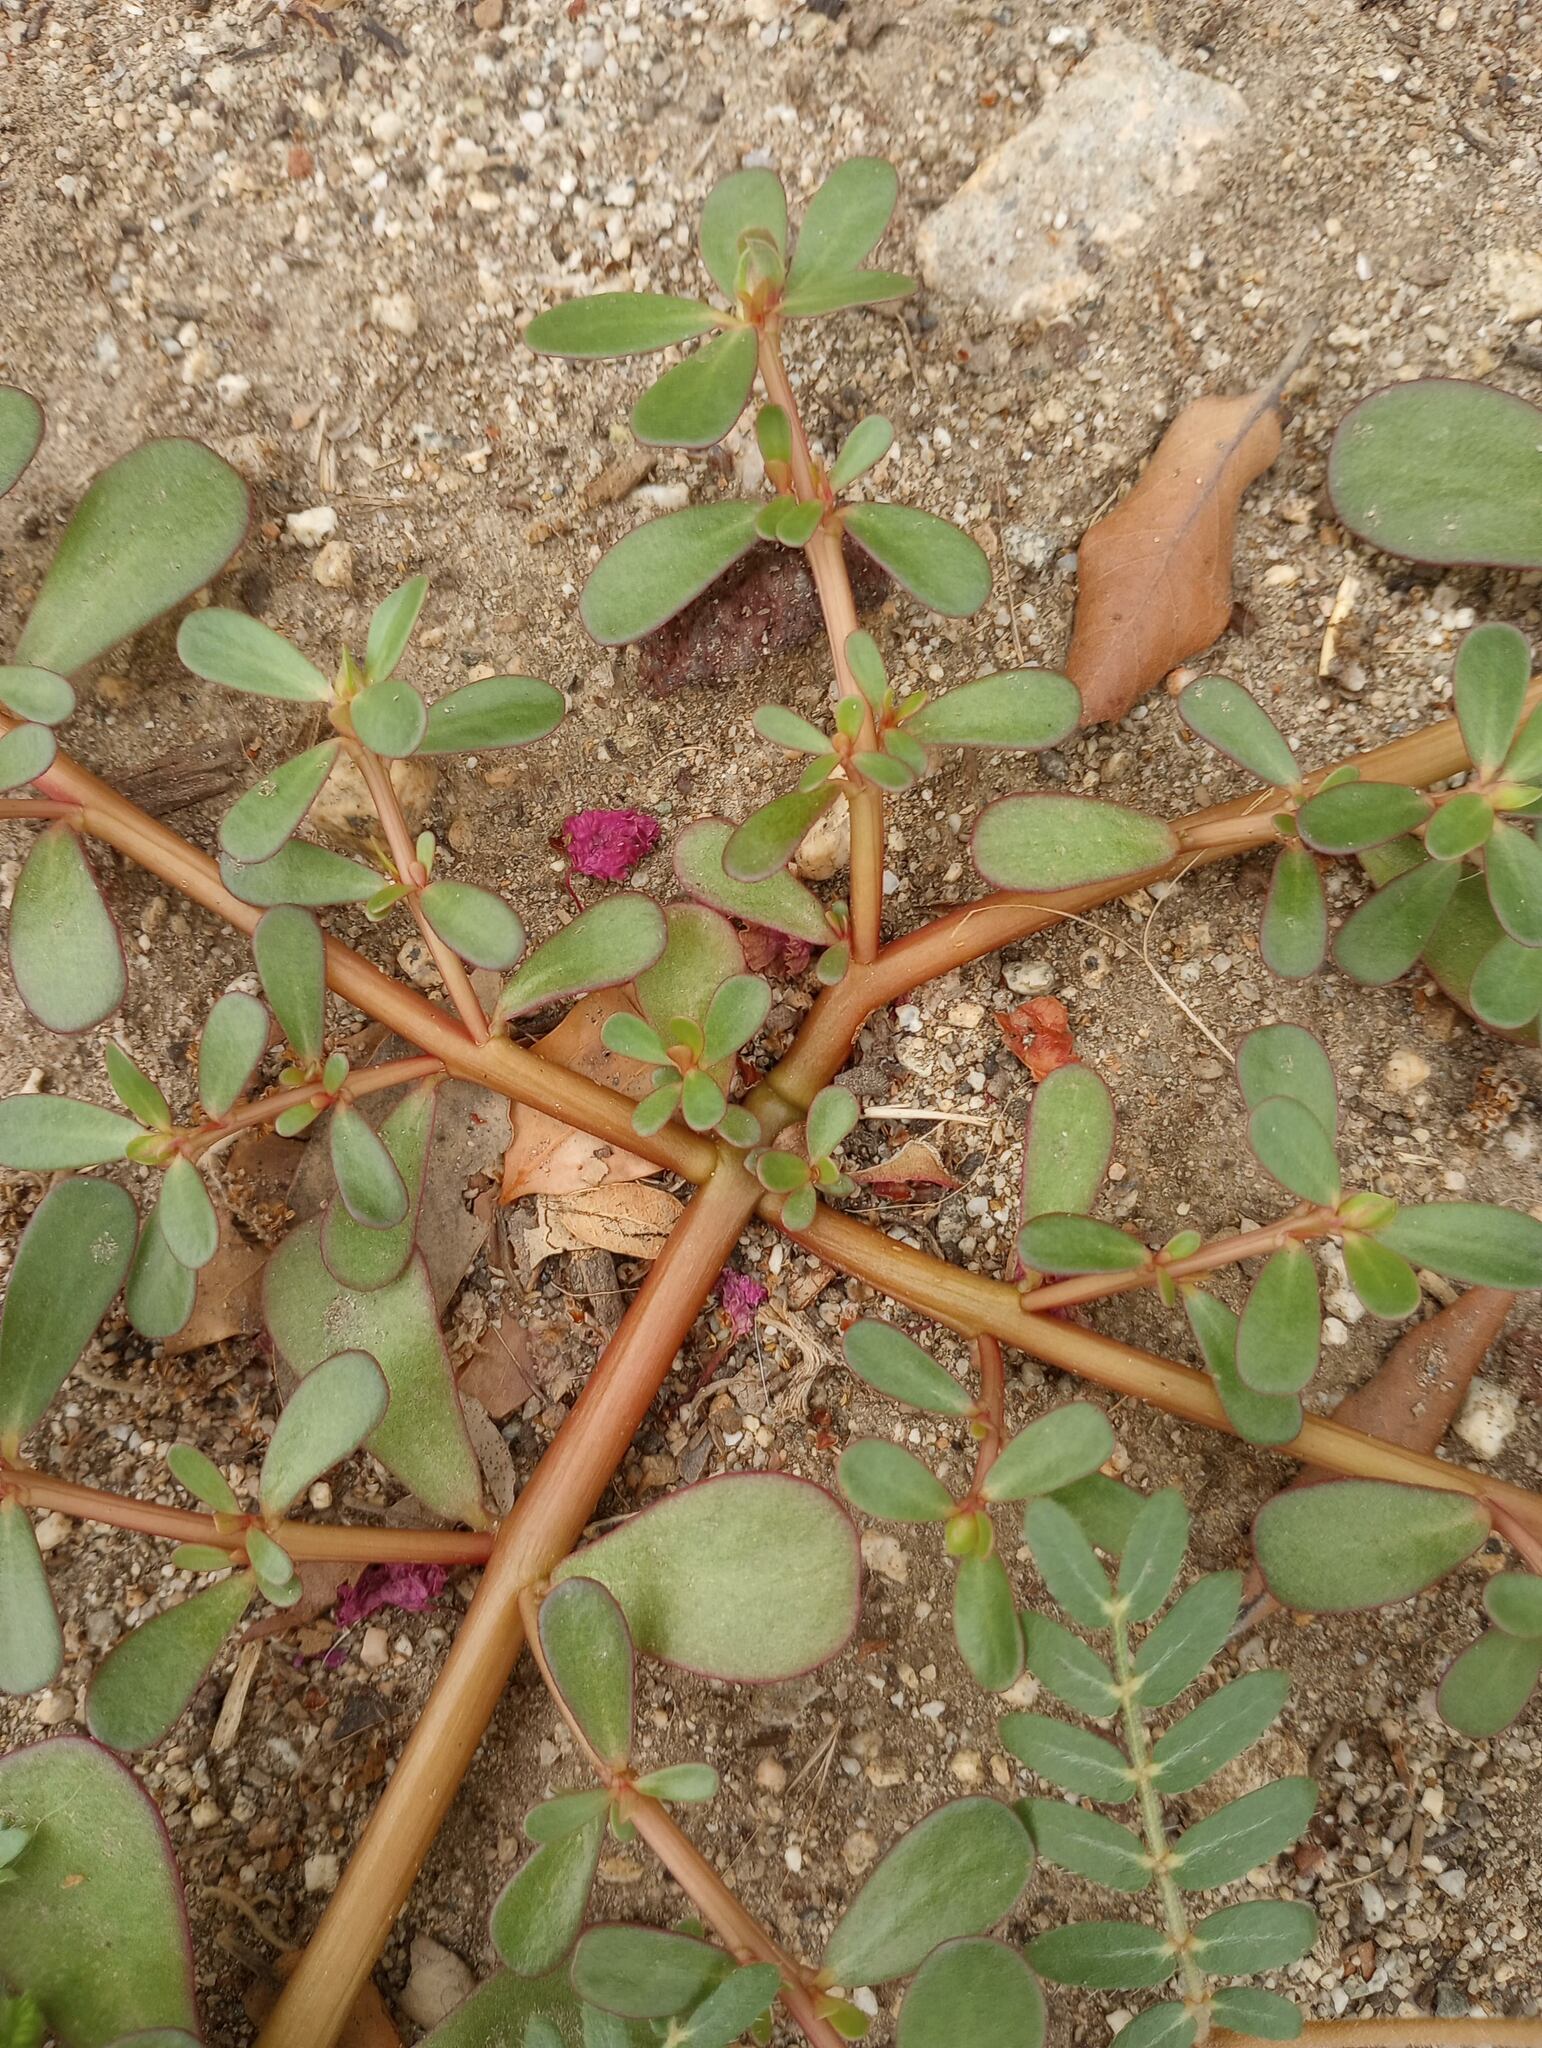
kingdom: Plantae
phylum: Tracheophyta
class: Magnoliopsida
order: Caryophyllales
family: Portulacaceae
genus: Portulaca
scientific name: Portulaca oleracea
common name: Common purslane
